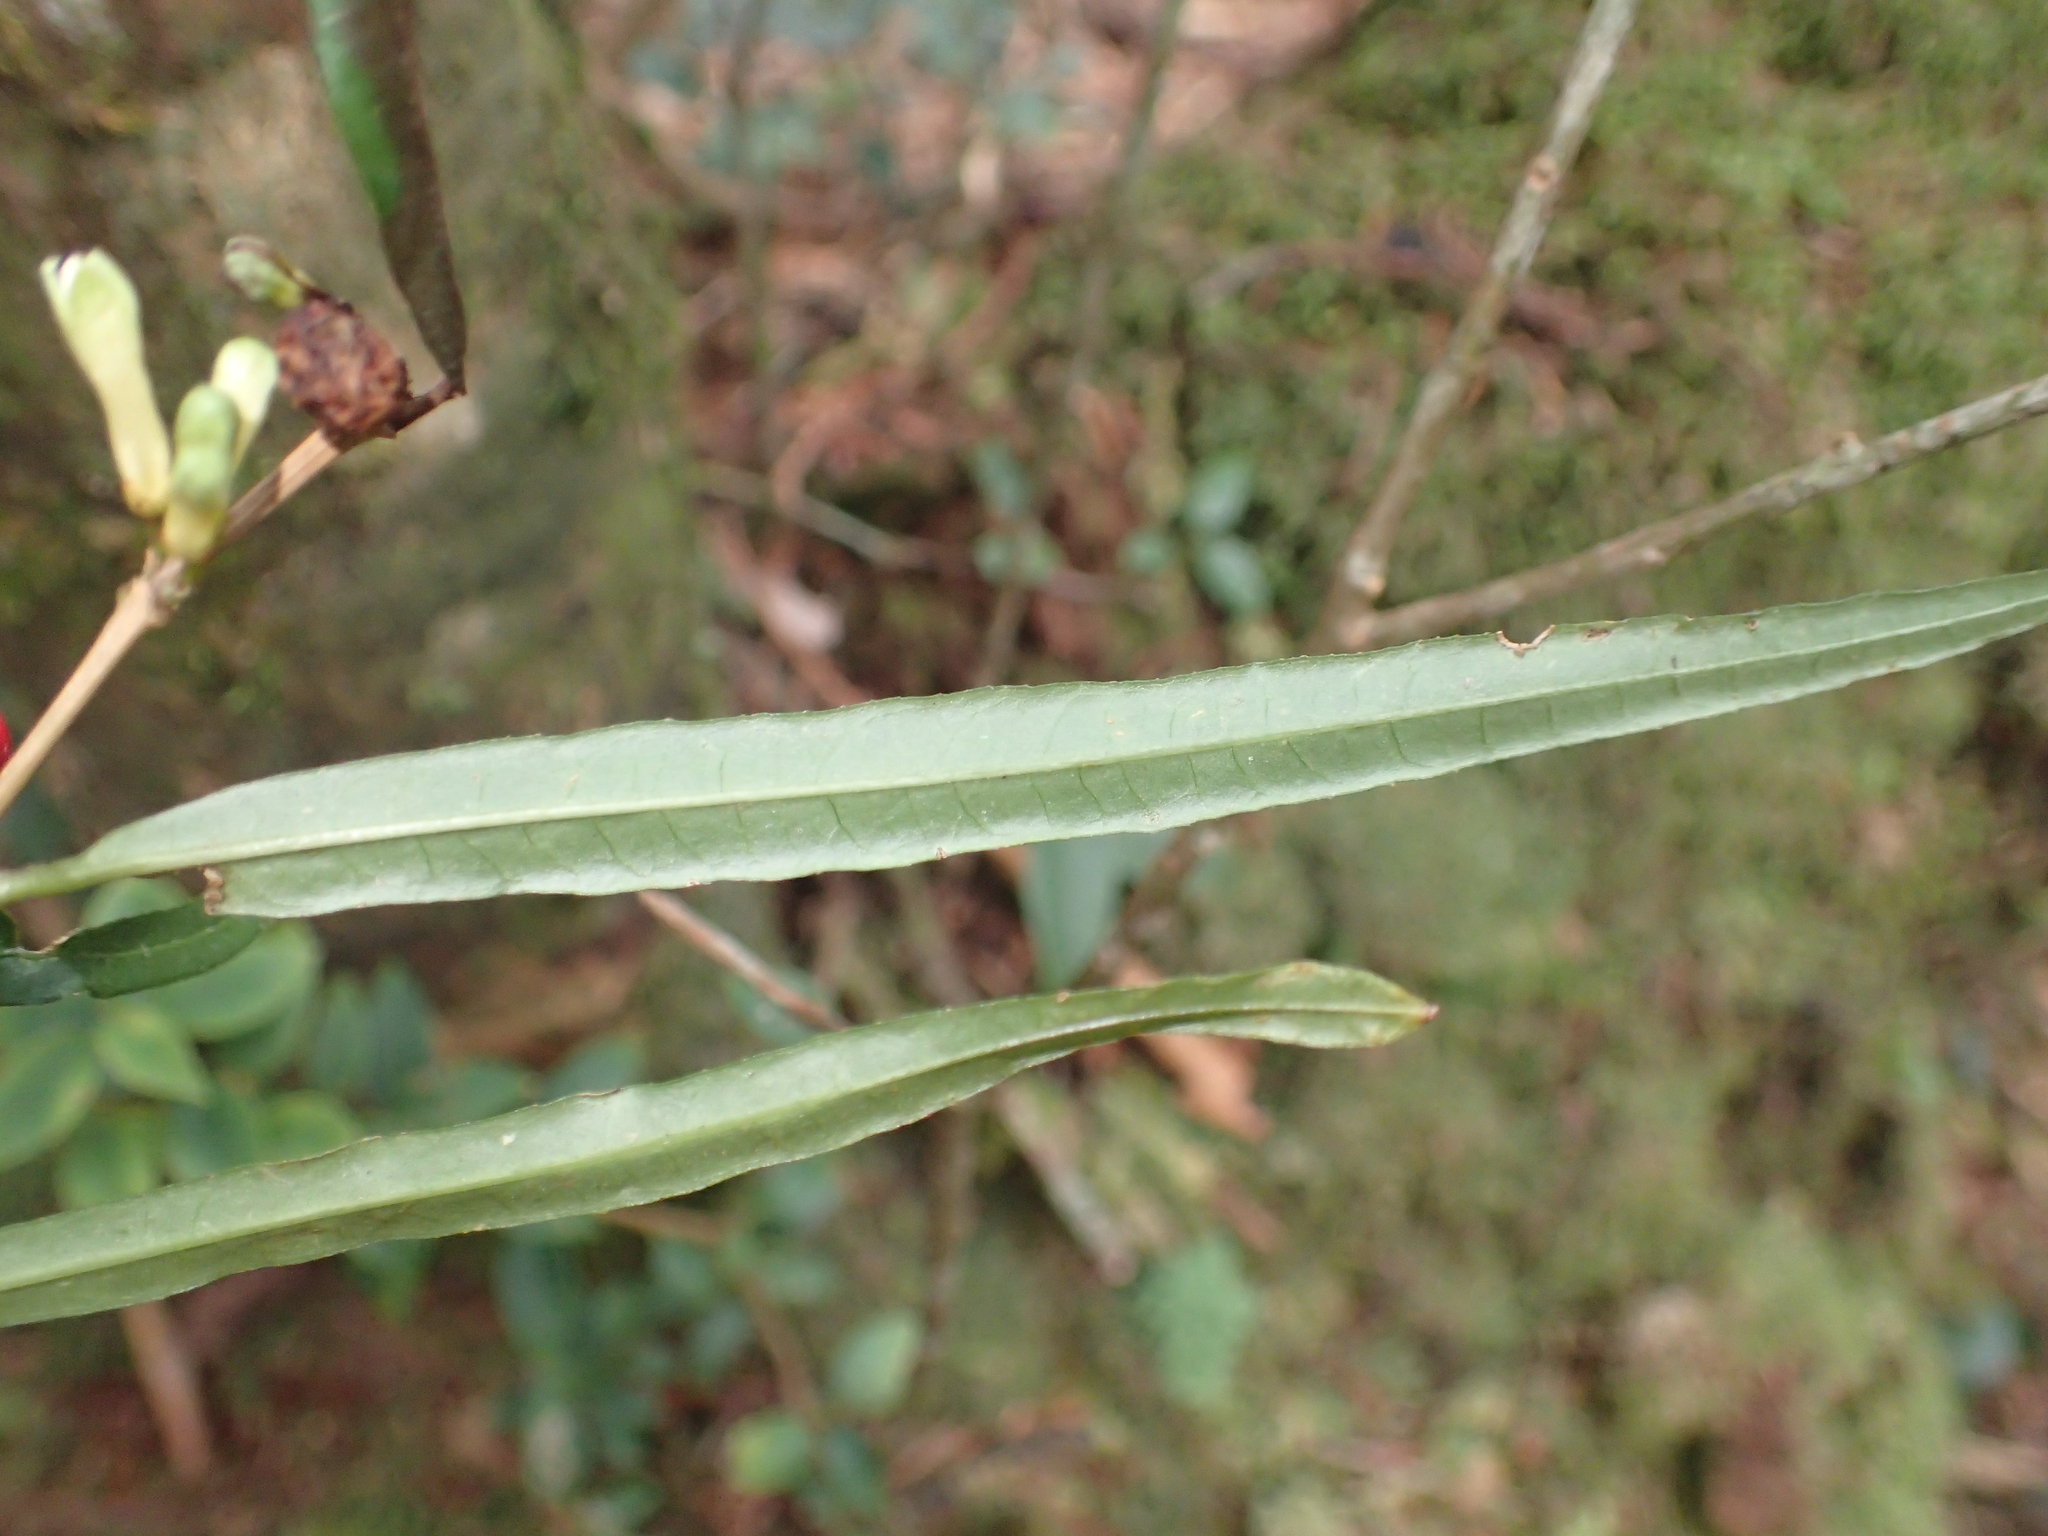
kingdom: Plantae
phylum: Tracheophyta
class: Magnoliopsida
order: Gentianales
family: Rubiaceae
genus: Damnacanthus
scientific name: Damnacanthus angustifolius
